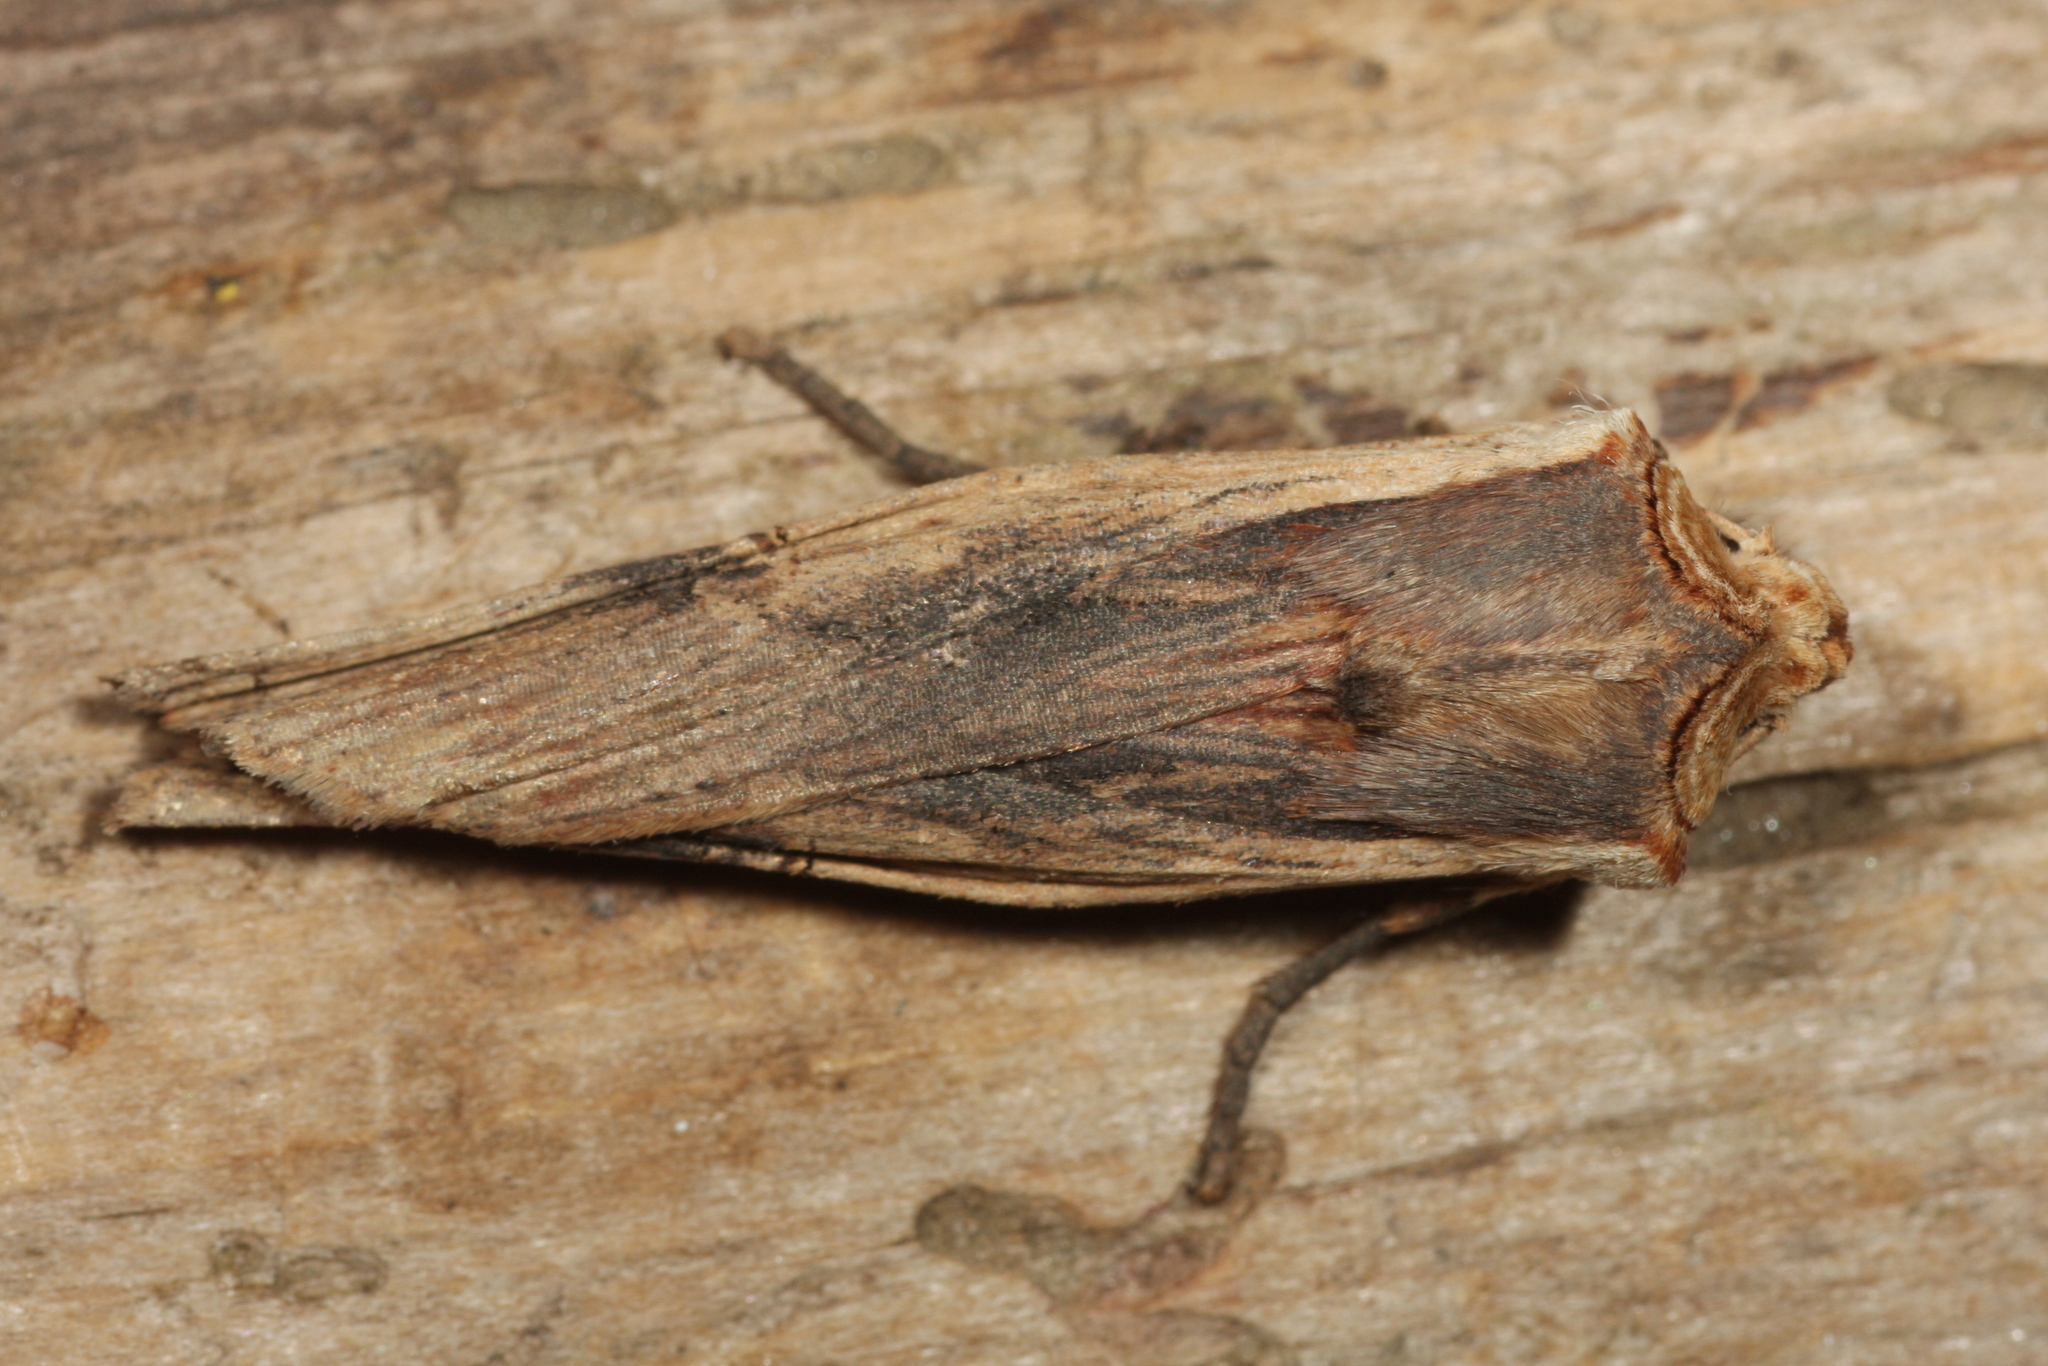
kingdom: Animalia
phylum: Arthropoda
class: Insecta
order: Lepidoptera
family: Noctuidae
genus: Xylena
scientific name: Xylena vetusta
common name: Red sword-grass
